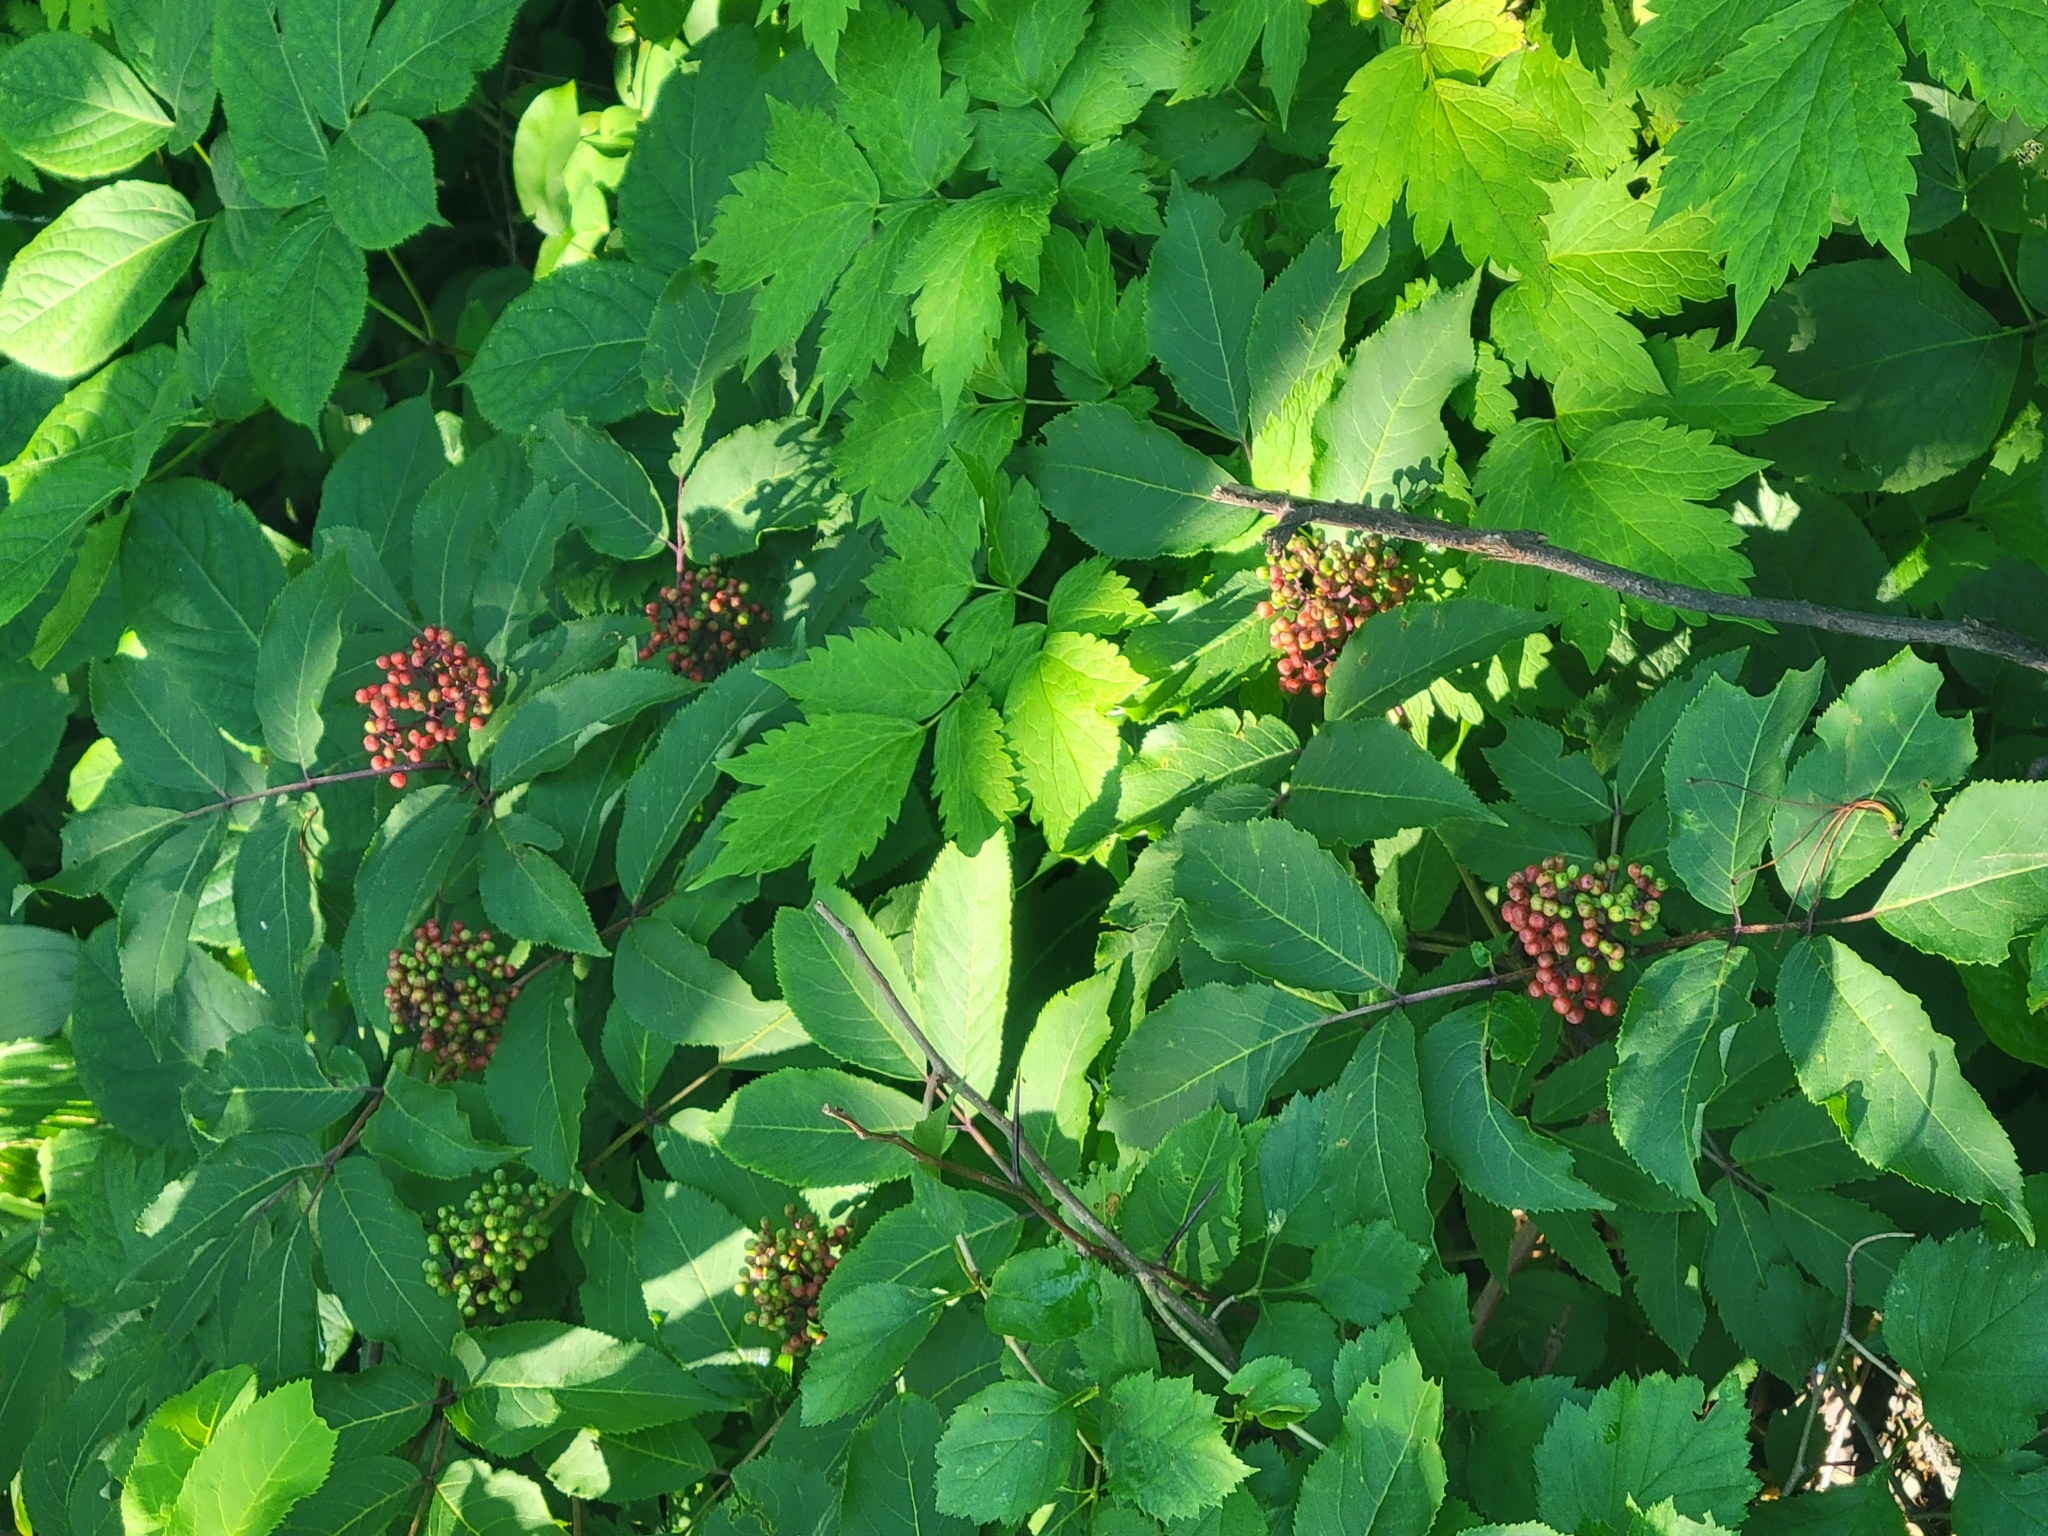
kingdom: Plantae
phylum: Tracheophyta
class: Magnoliopsida
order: Dipsacales
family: Viburnaceae
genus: Sambucus
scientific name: Sambucus racemosa
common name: Red-berried elder
